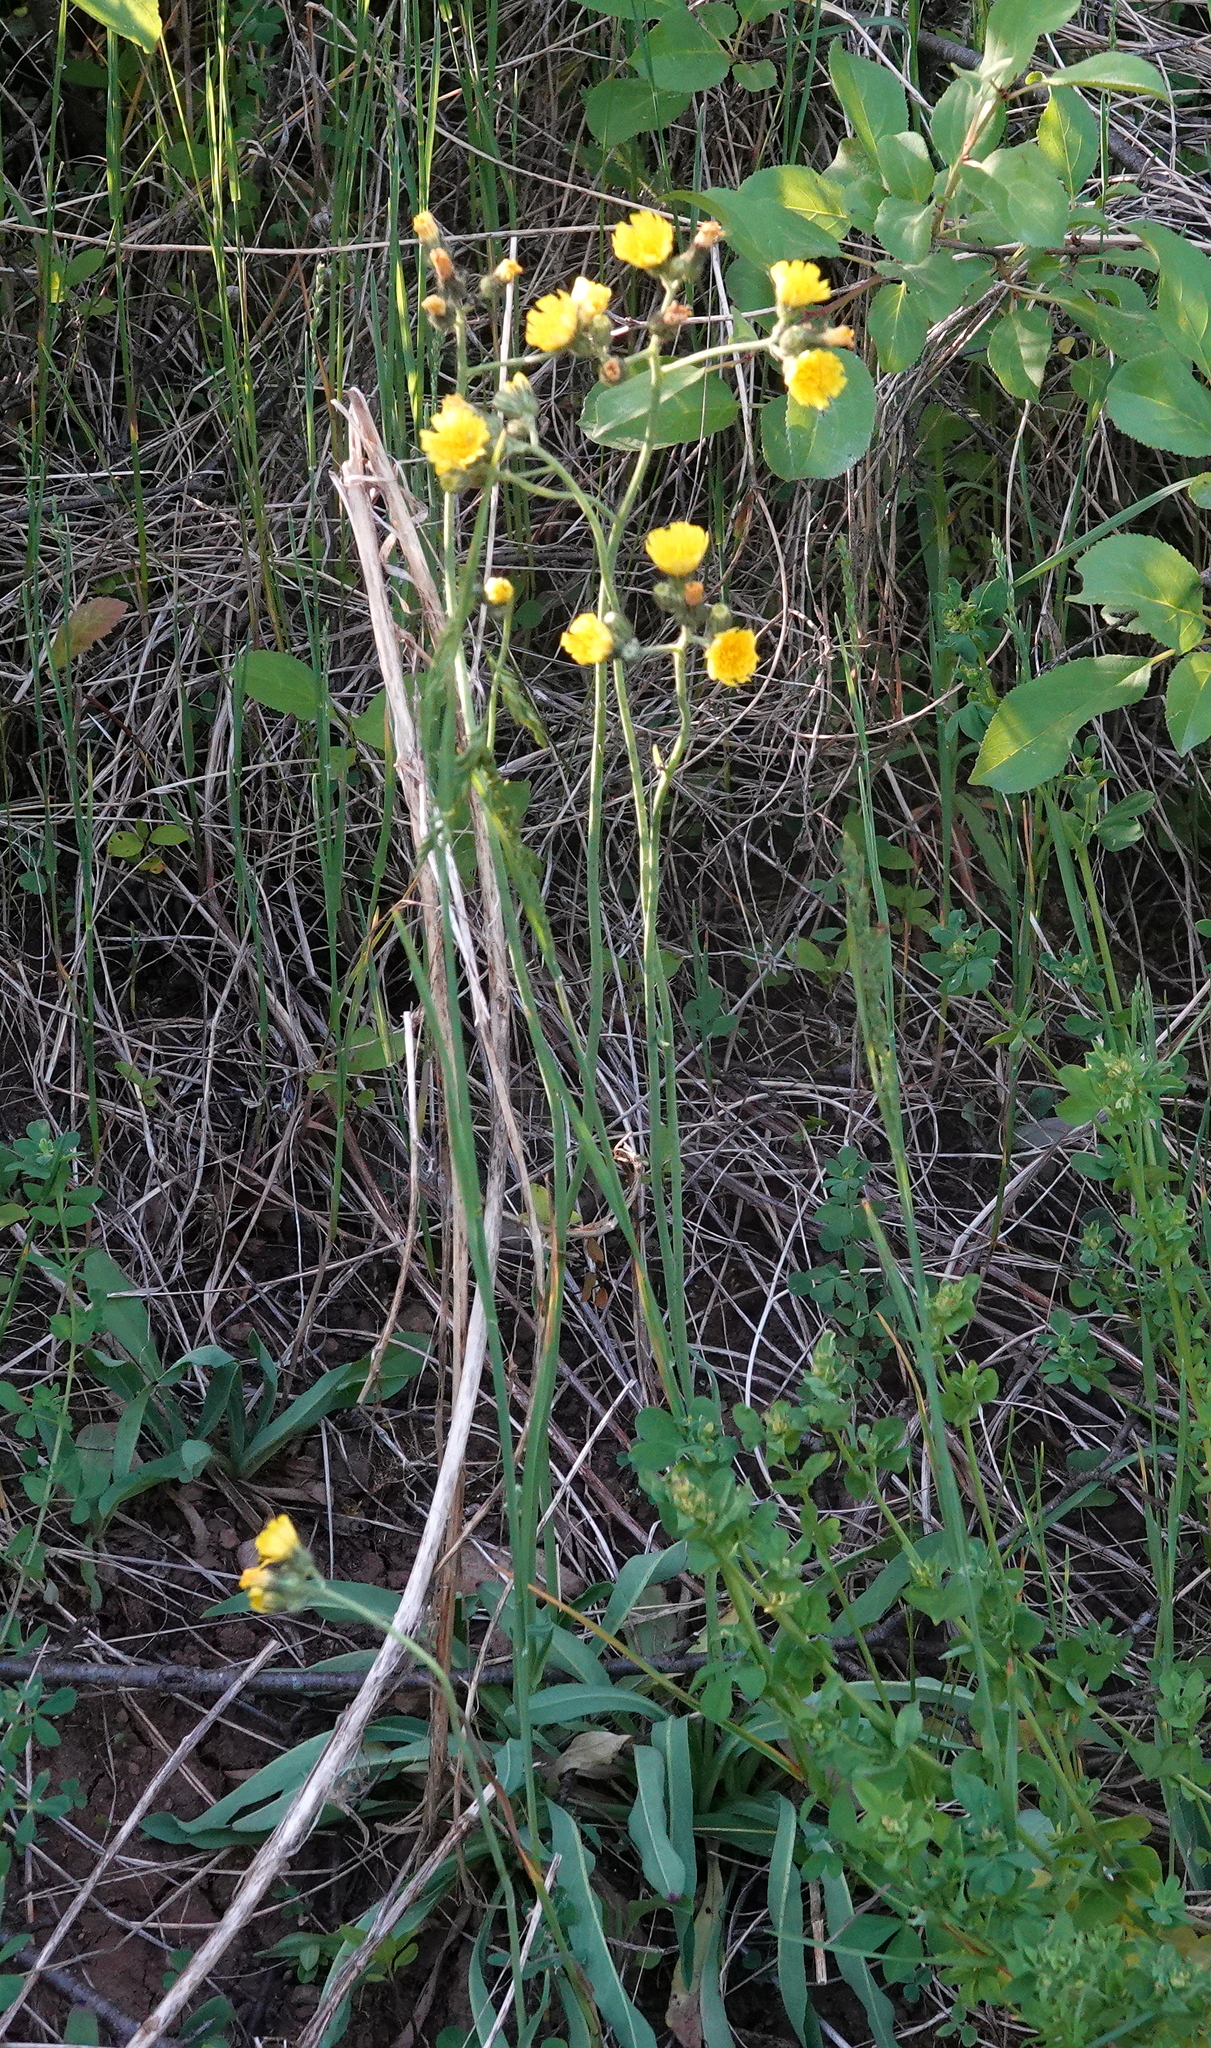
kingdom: Plantae
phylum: Tracheophyta
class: Magnoliopsida
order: Asterales
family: Asteraceae
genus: Pilosella
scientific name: Pilosella piloselloides
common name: Glaucous king-devil
